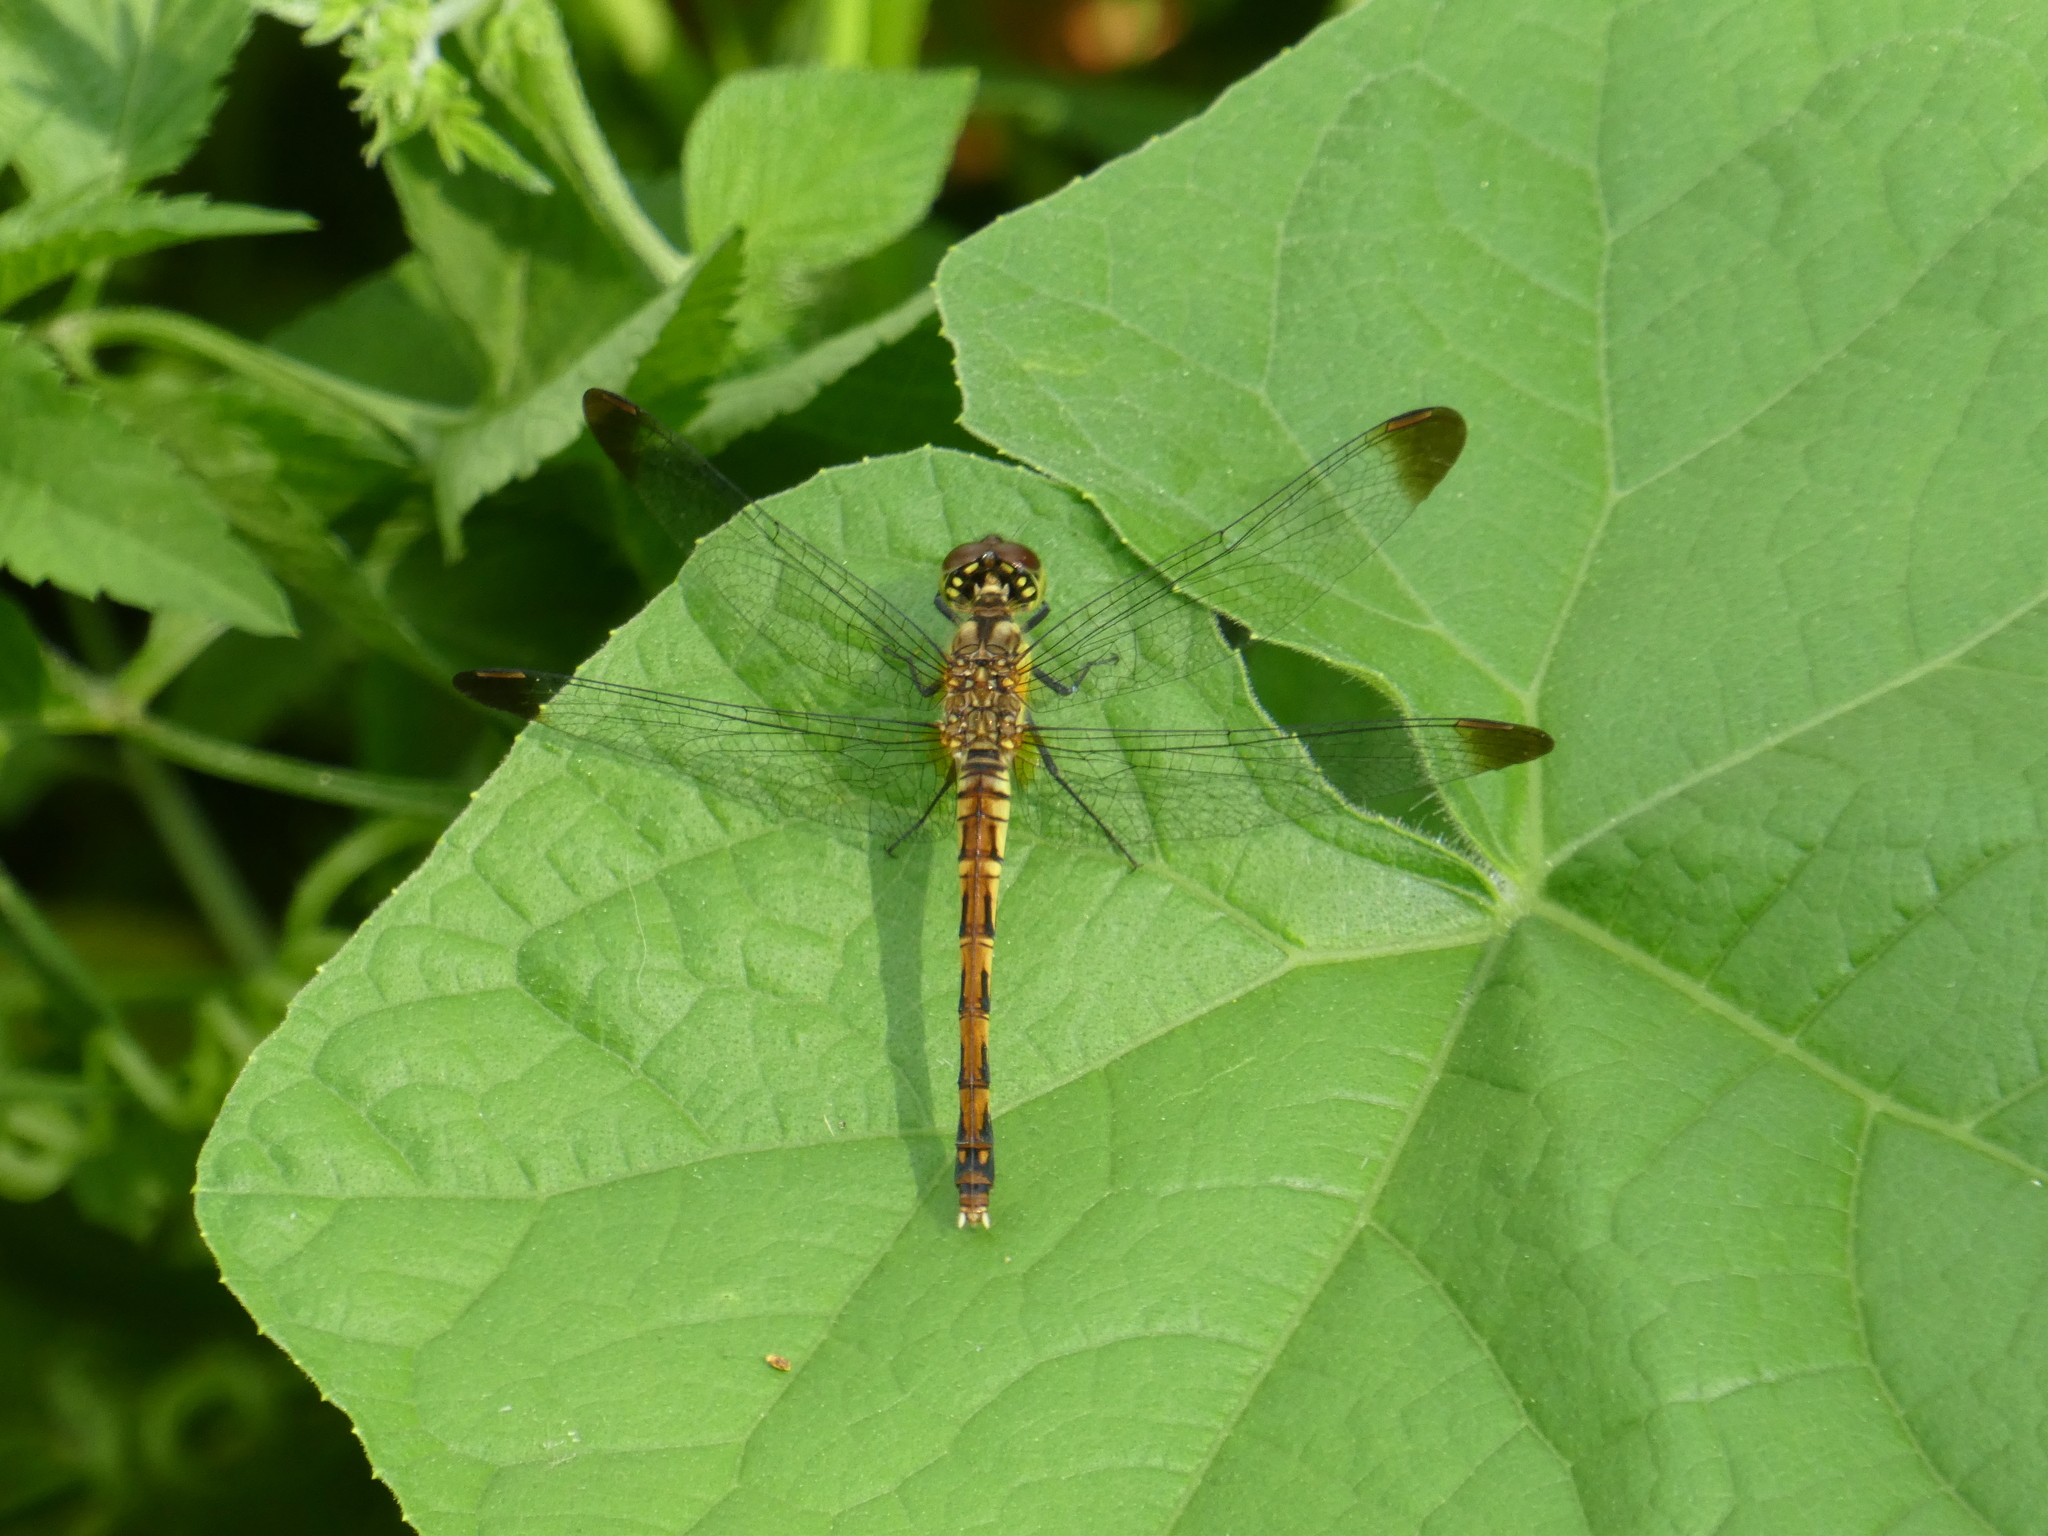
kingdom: Animalia
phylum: Arthropoda
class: Insecta
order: Odonata
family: Libellulidae
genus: Sympetrum
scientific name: Sympetrum risi
